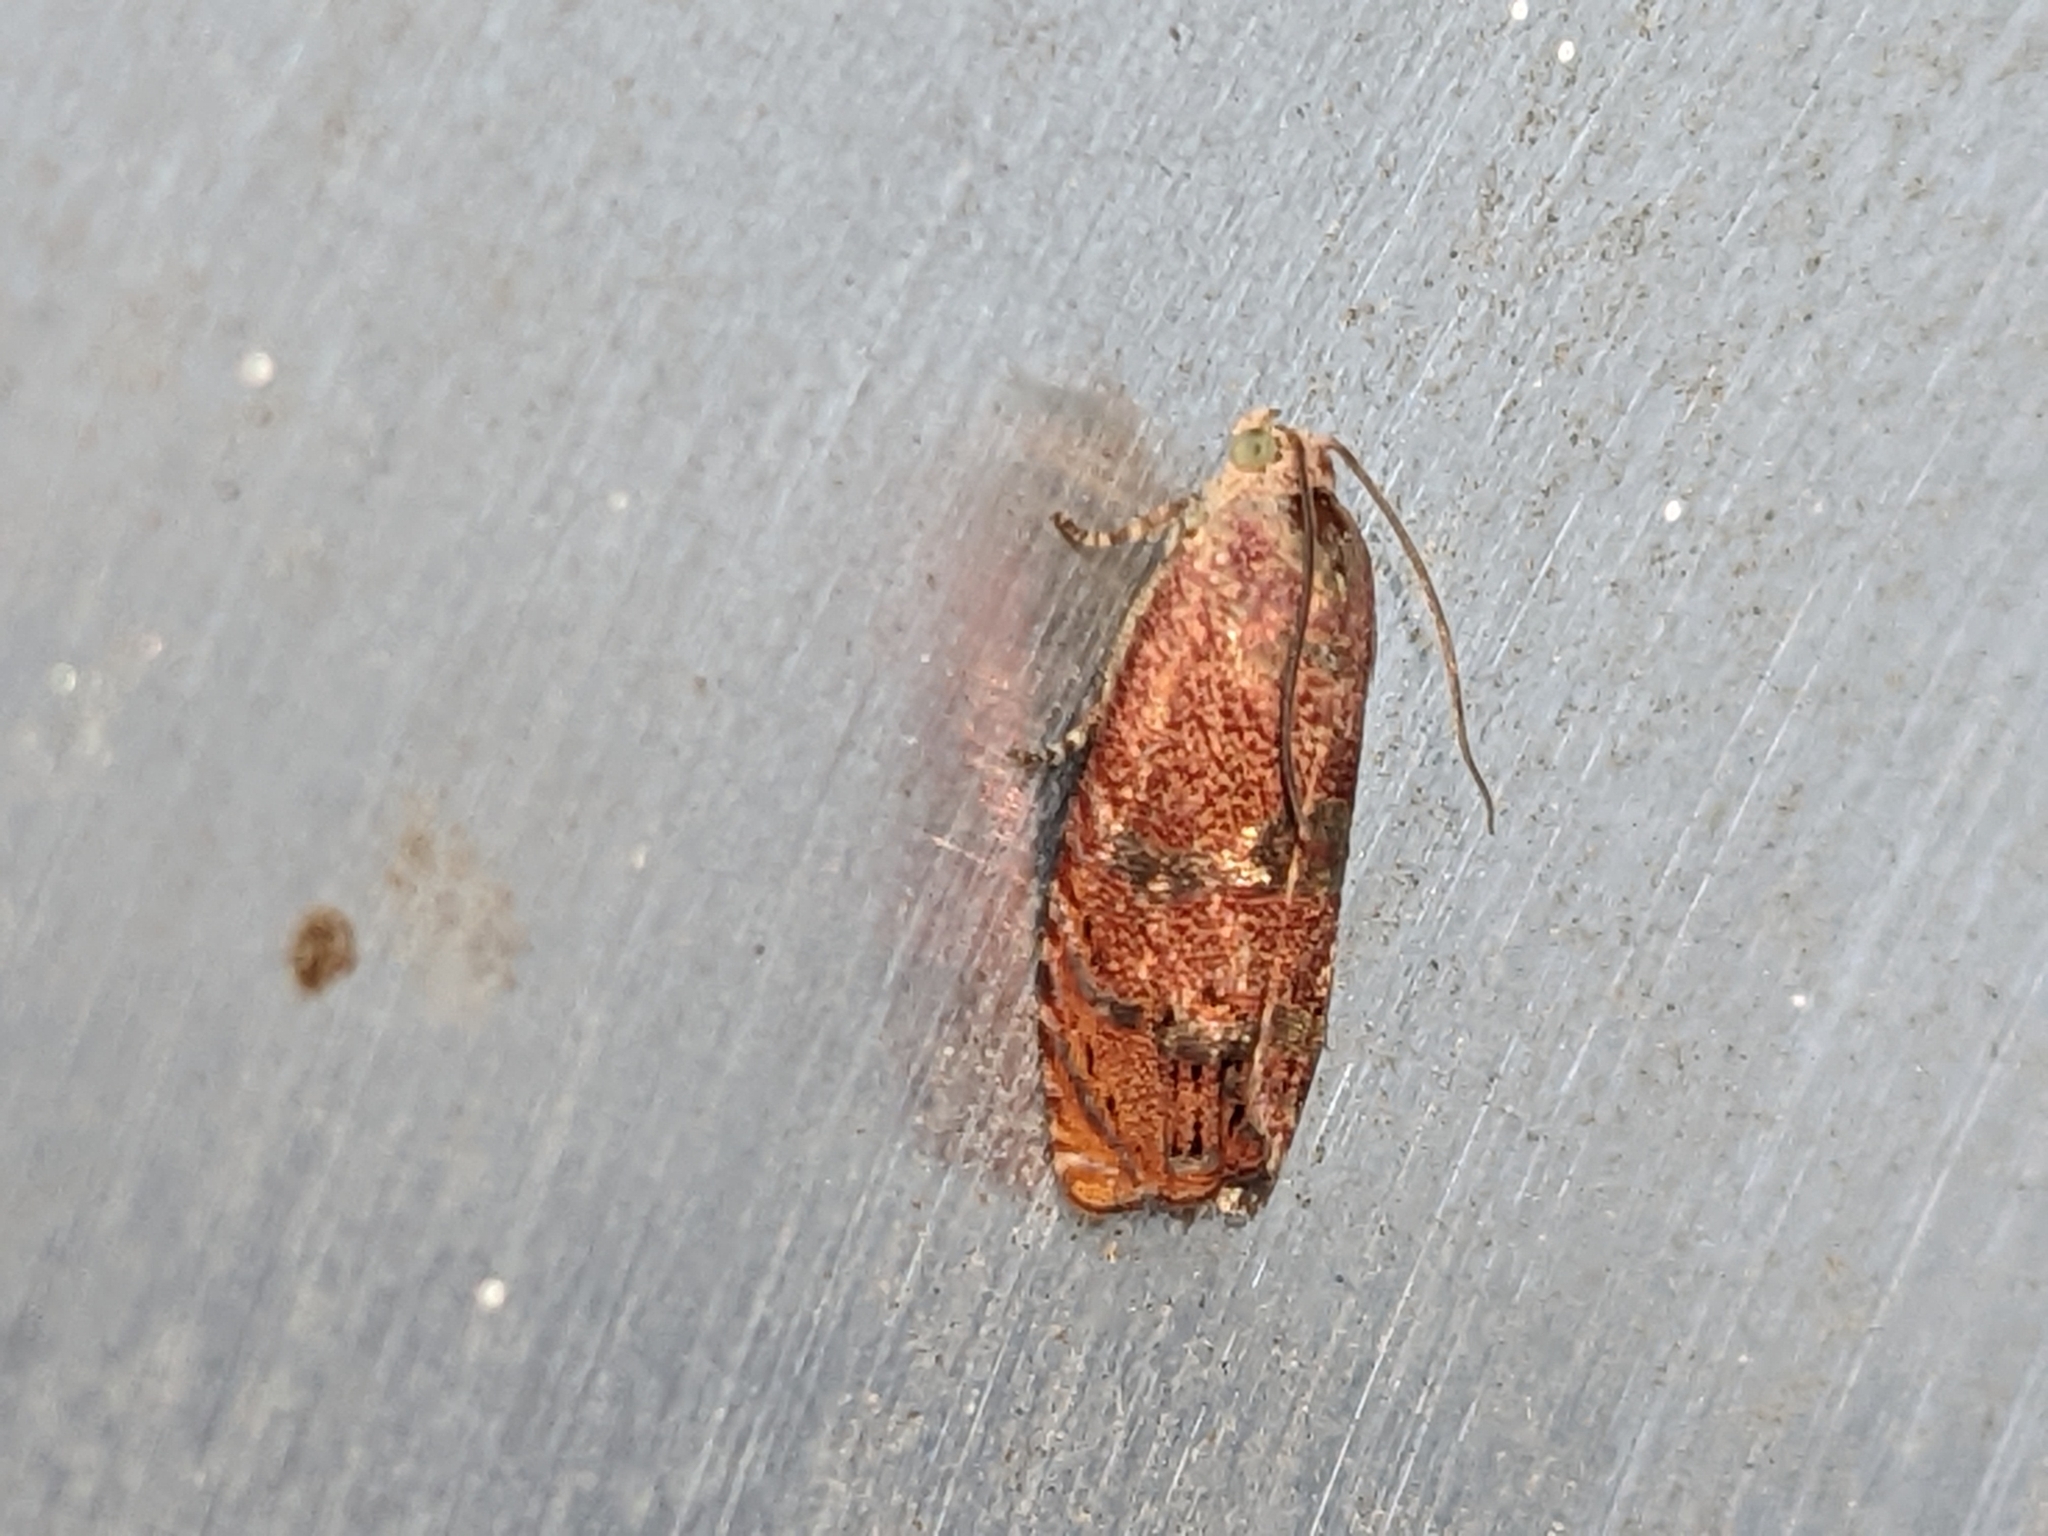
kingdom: Animalia
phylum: Arthropoda
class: Insecta
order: Lepidoptera
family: Tortricidae
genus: Cydia
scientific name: Cydia latiferreana
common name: Filbertworm moth
